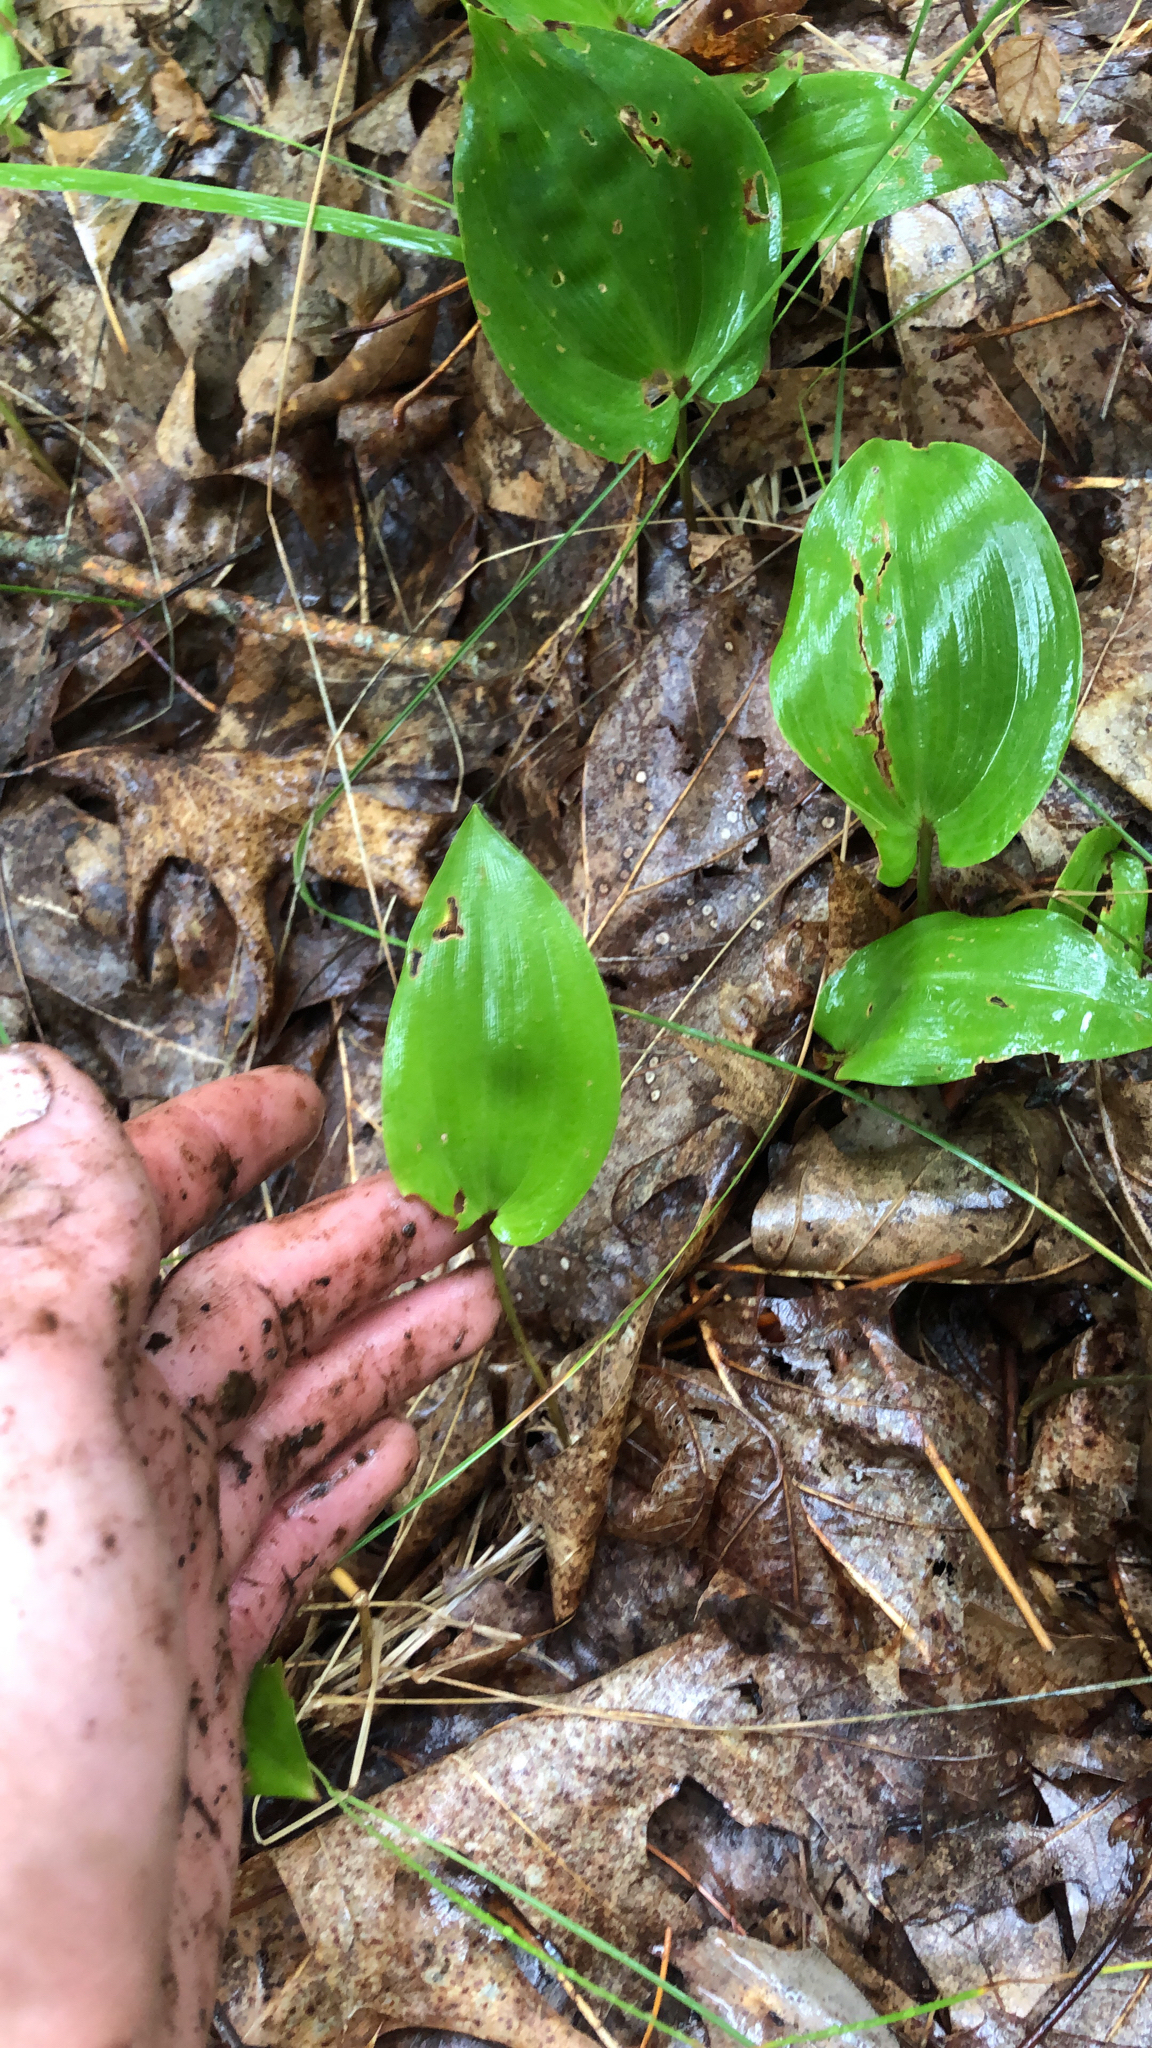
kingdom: Plantae
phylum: Tracheophyta
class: Liliopsida
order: Asparagales
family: Asparagaceae
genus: Maianthemum
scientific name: Maianthemum canadense
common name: False lily-of-the-valley
